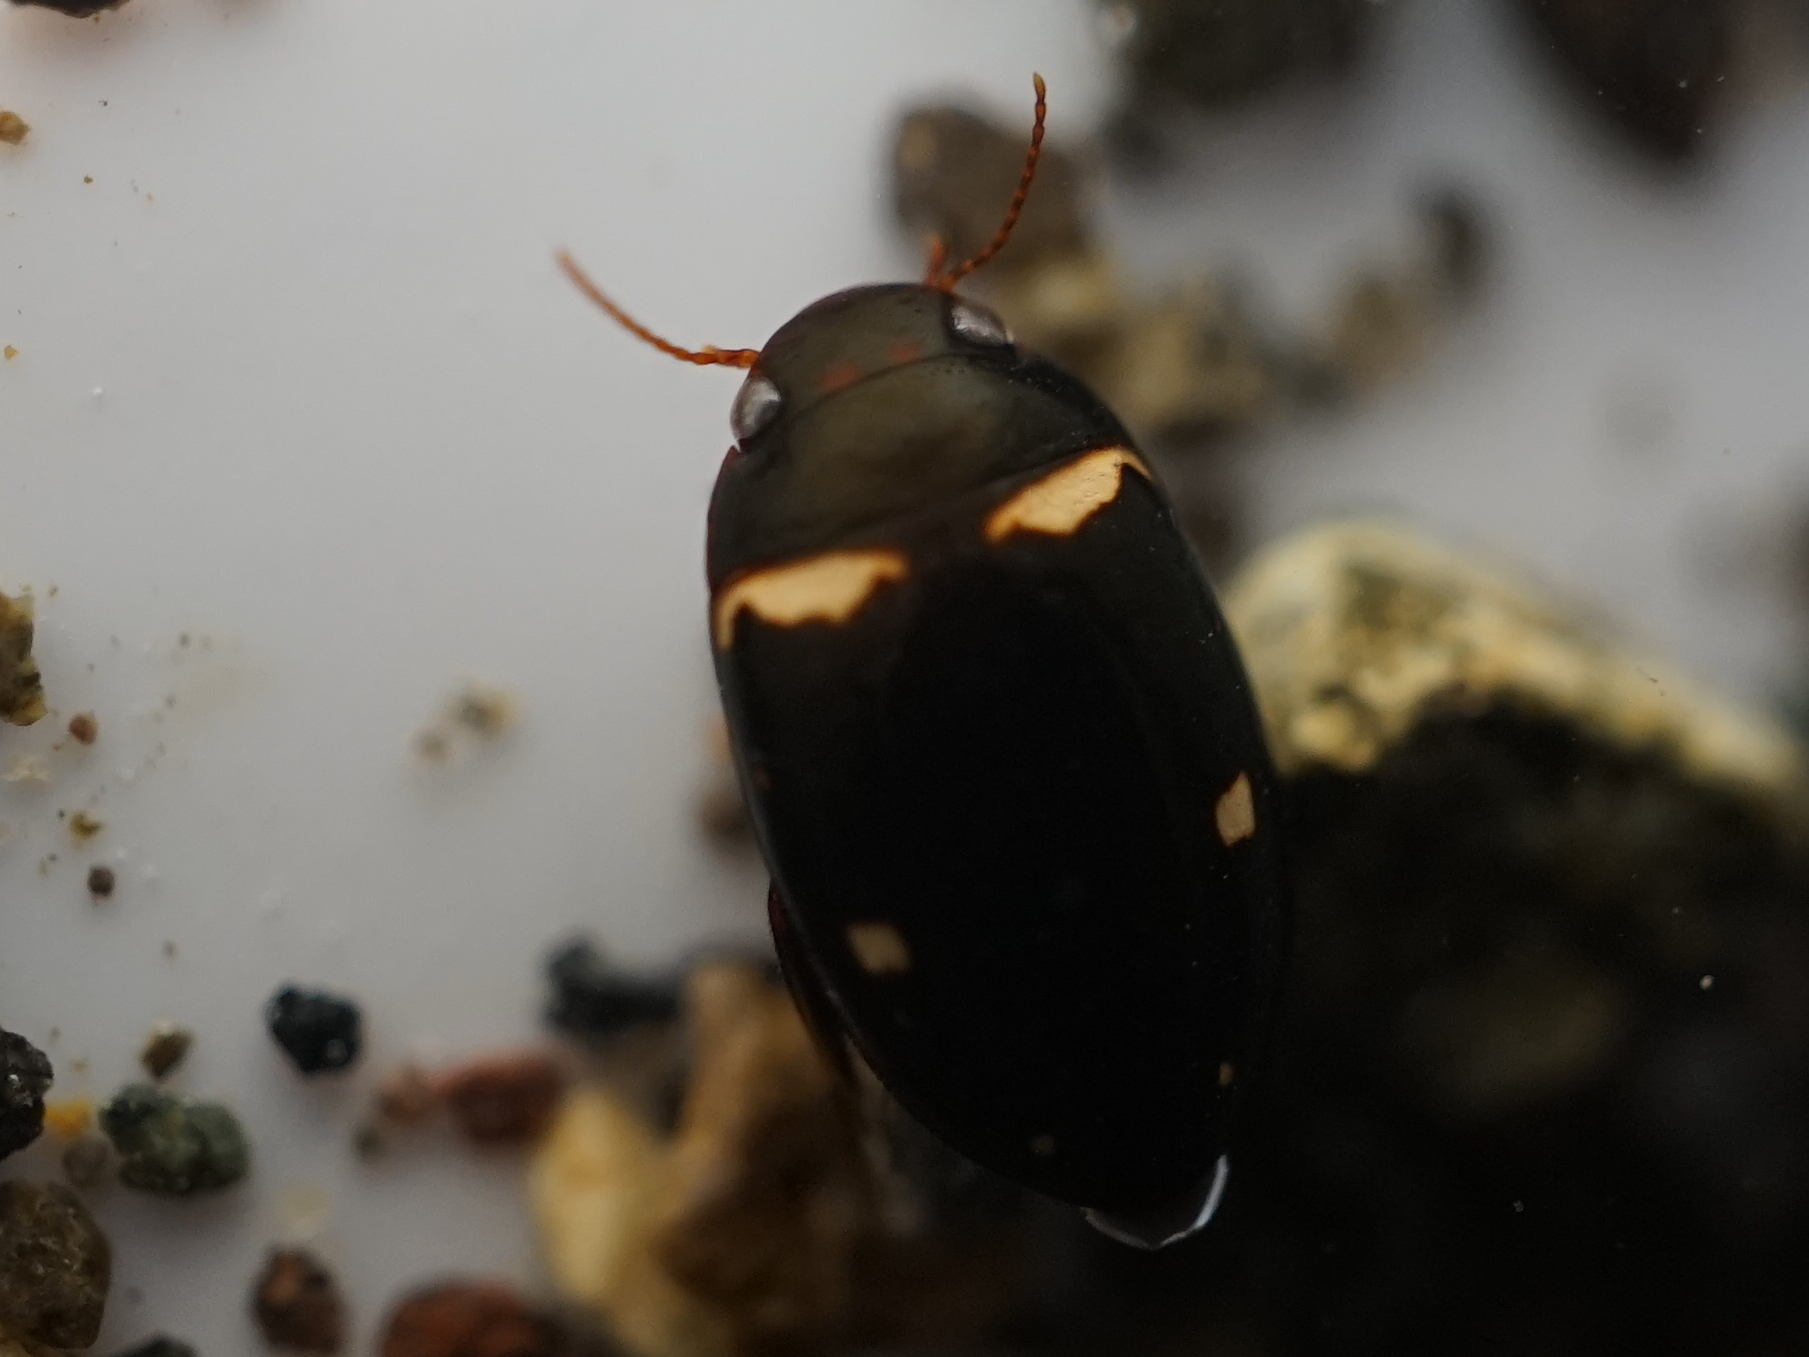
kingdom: Animalia
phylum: Arthropoda
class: Insecta
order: Coleoptera
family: Dytiscidae
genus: Platambus
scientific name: Platambus pictipennis
